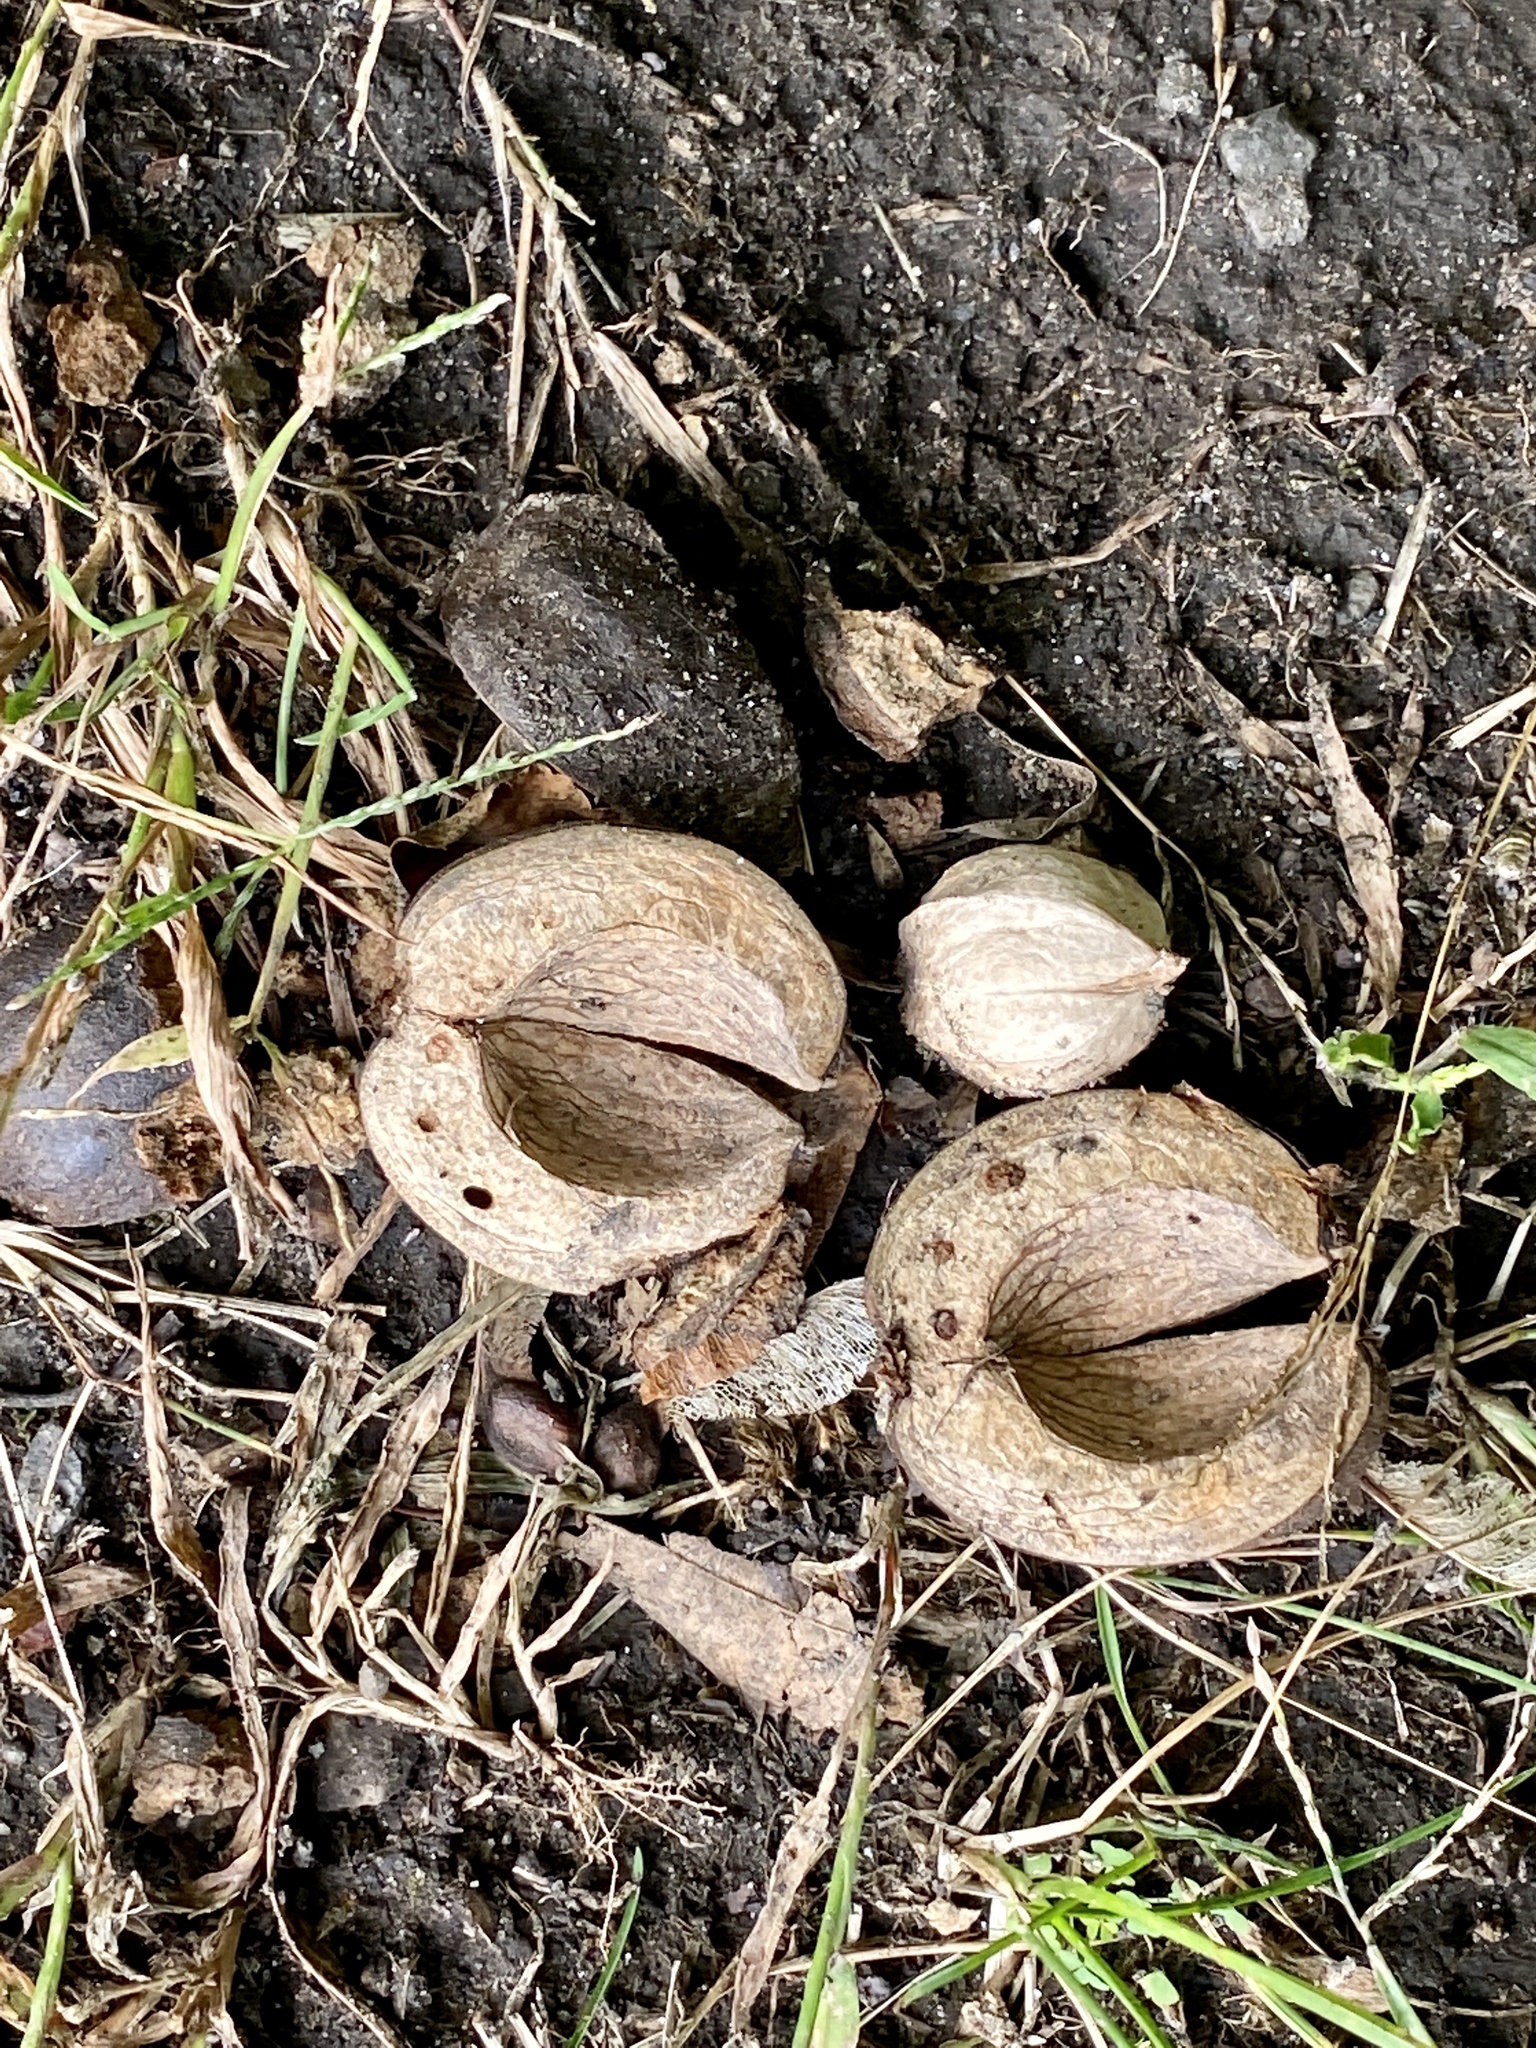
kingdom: Plantae
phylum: Tracheophyta
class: Magnoliopsida
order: Fagales
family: Juglandaceae
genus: Carya
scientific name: Carya ovata
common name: Shagbark hickory
